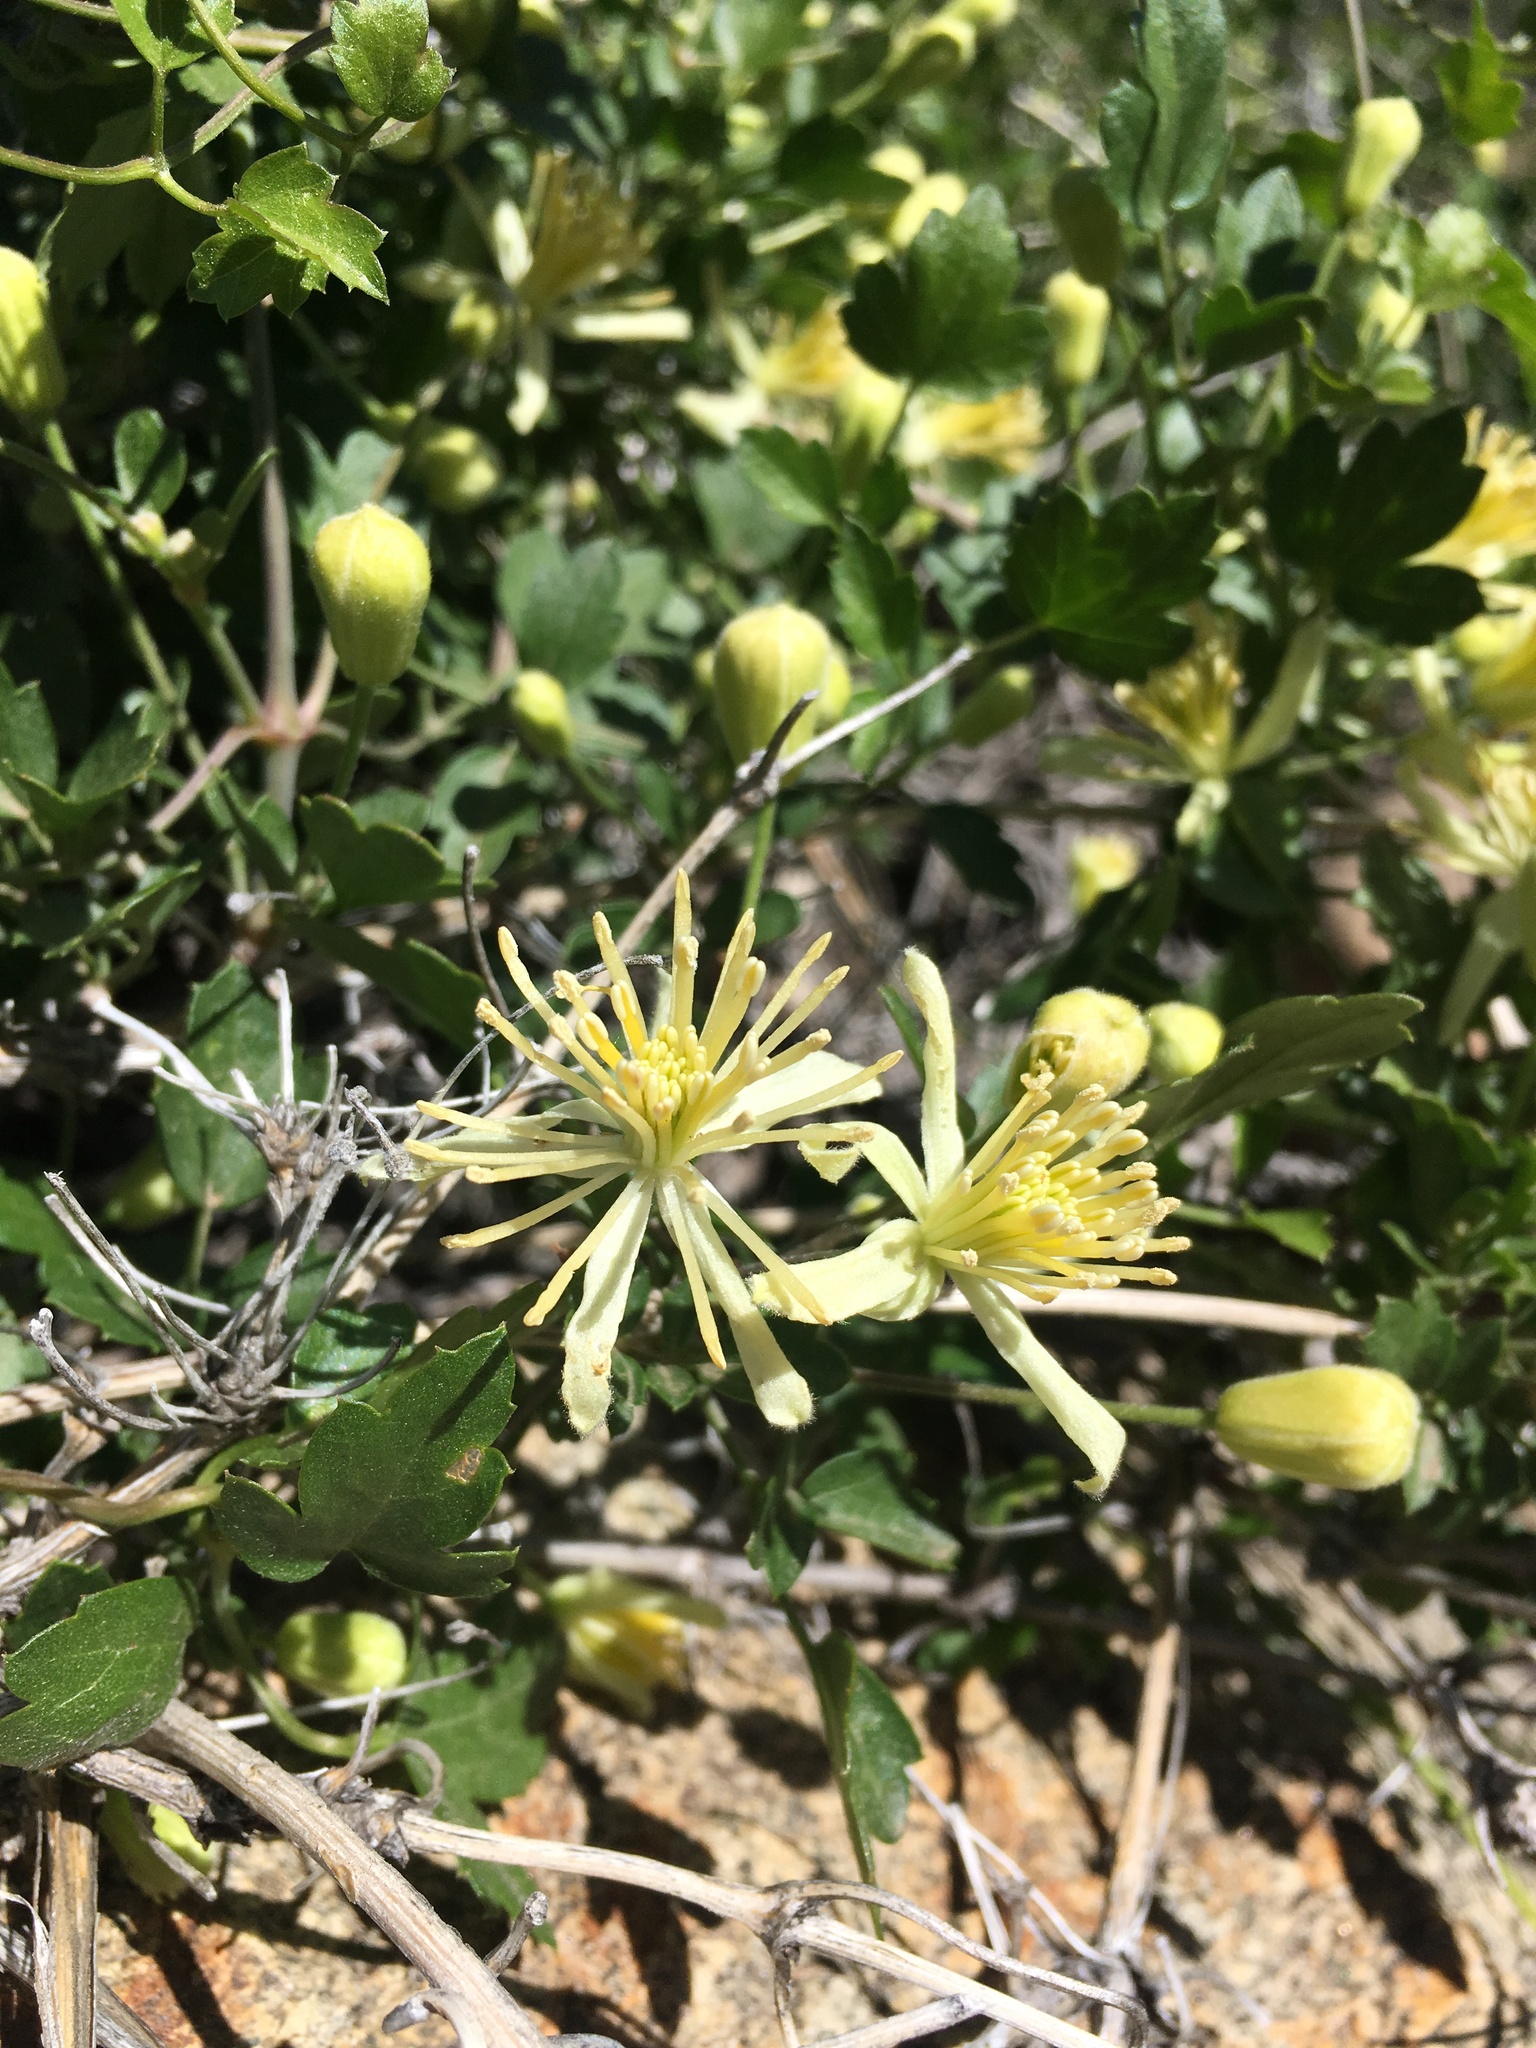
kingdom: Plantae
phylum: Tracheophyta
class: Magnoliopsida
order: Ranunculales
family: Ranunculaceae
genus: Clematis
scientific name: Clematis pauciflora
